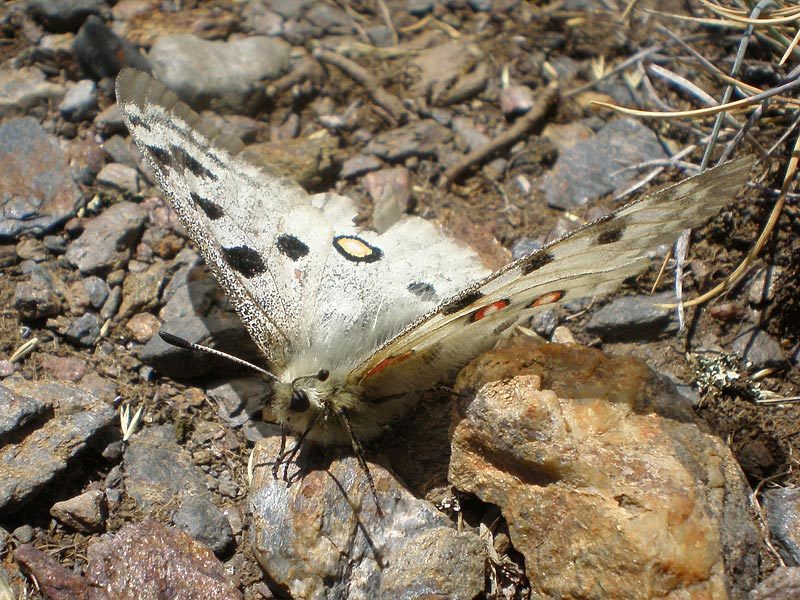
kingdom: Animalia
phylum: Arthropoda
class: Insecta
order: Lepidoptera
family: Papilionidae
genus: Parnassius
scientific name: Parnassius apollo
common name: Apollo
